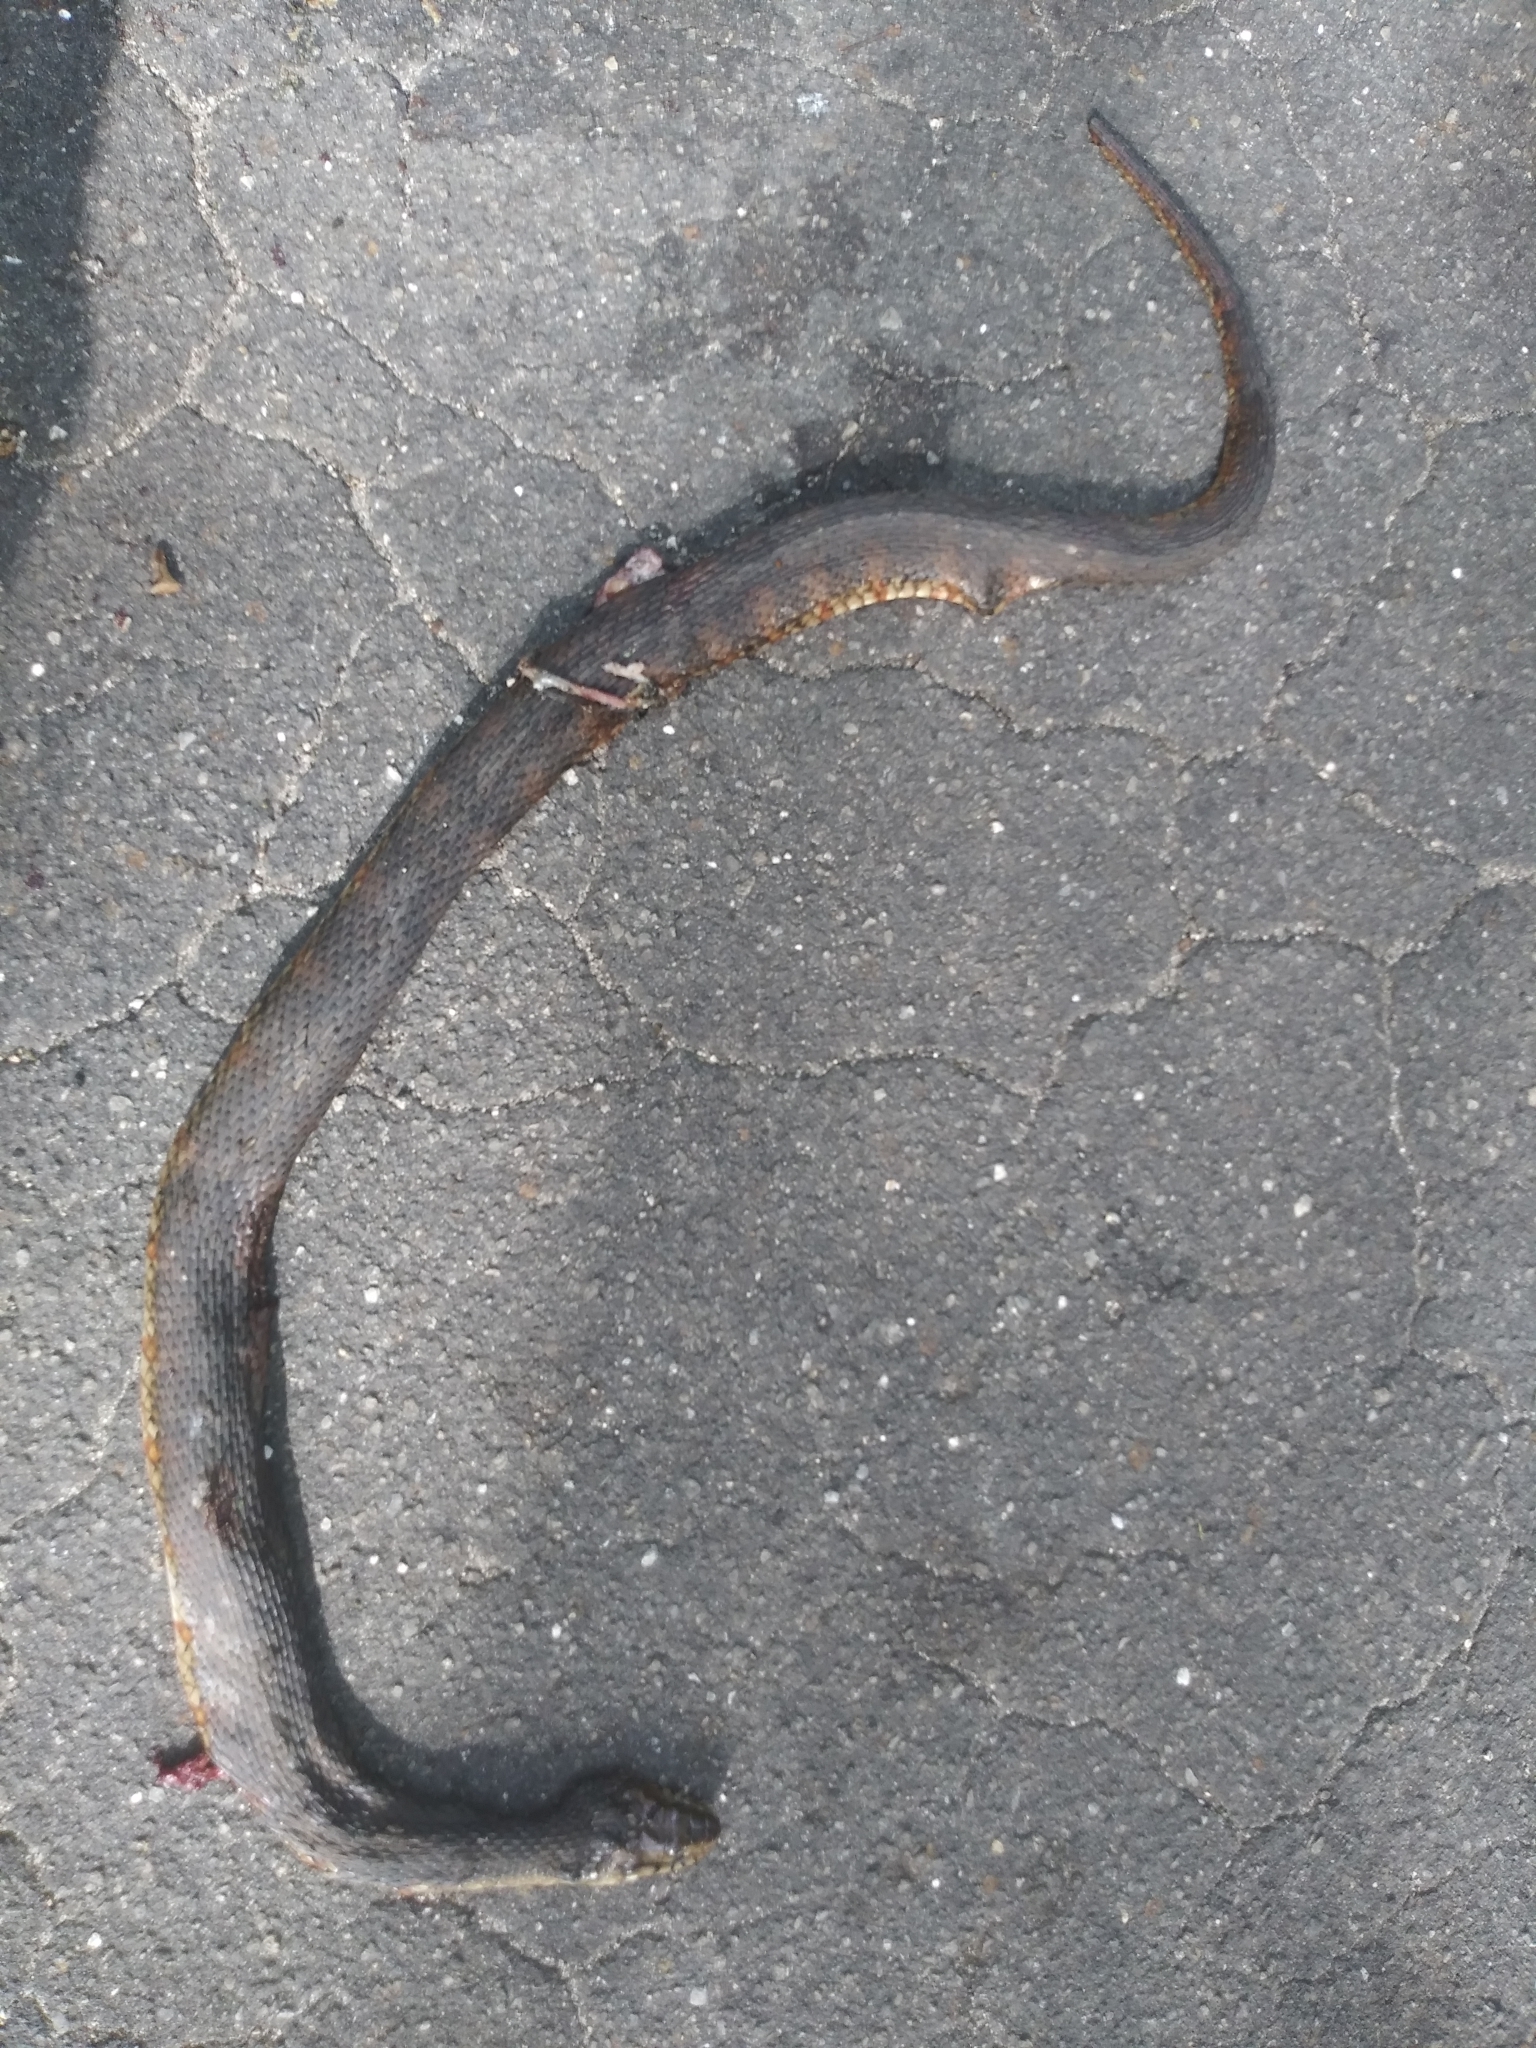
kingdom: Animalia
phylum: Chordata
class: Squamata
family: Colubridae
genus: Nerodia
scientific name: Nerodia fasciata
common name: Southern water snake
